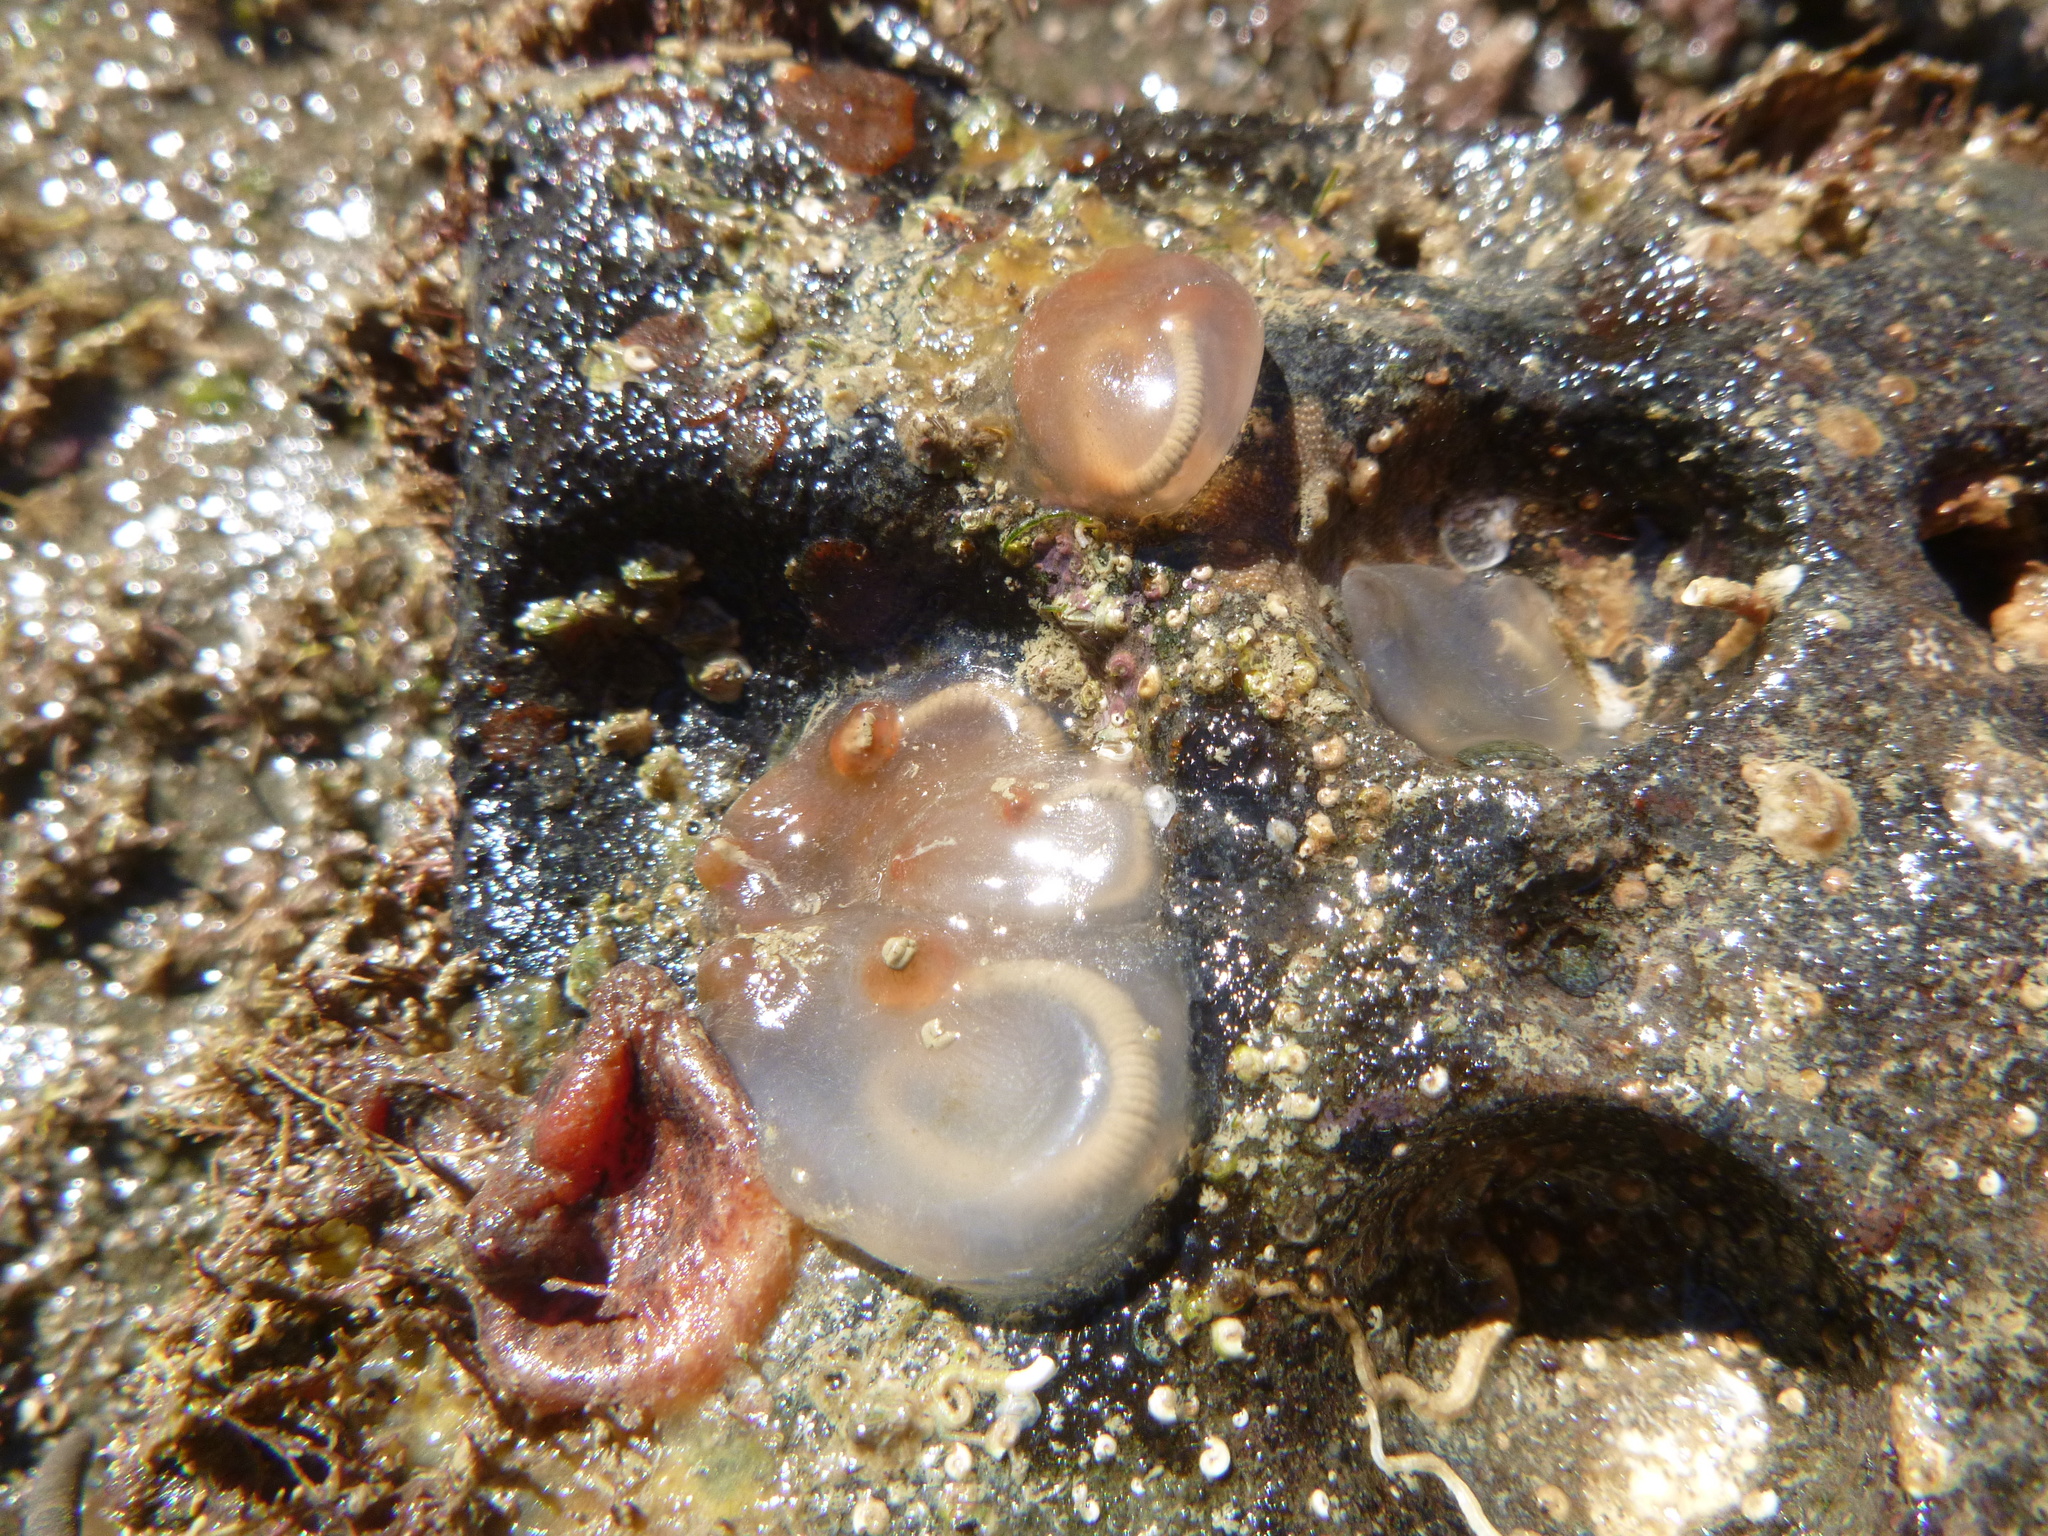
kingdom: Animalia
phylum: Chordata
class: Ascidiacea
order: Phlebobranchia
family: Corellidae
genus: Corella
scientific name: Corella eumyota
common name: Orange-tipped sea squirt
